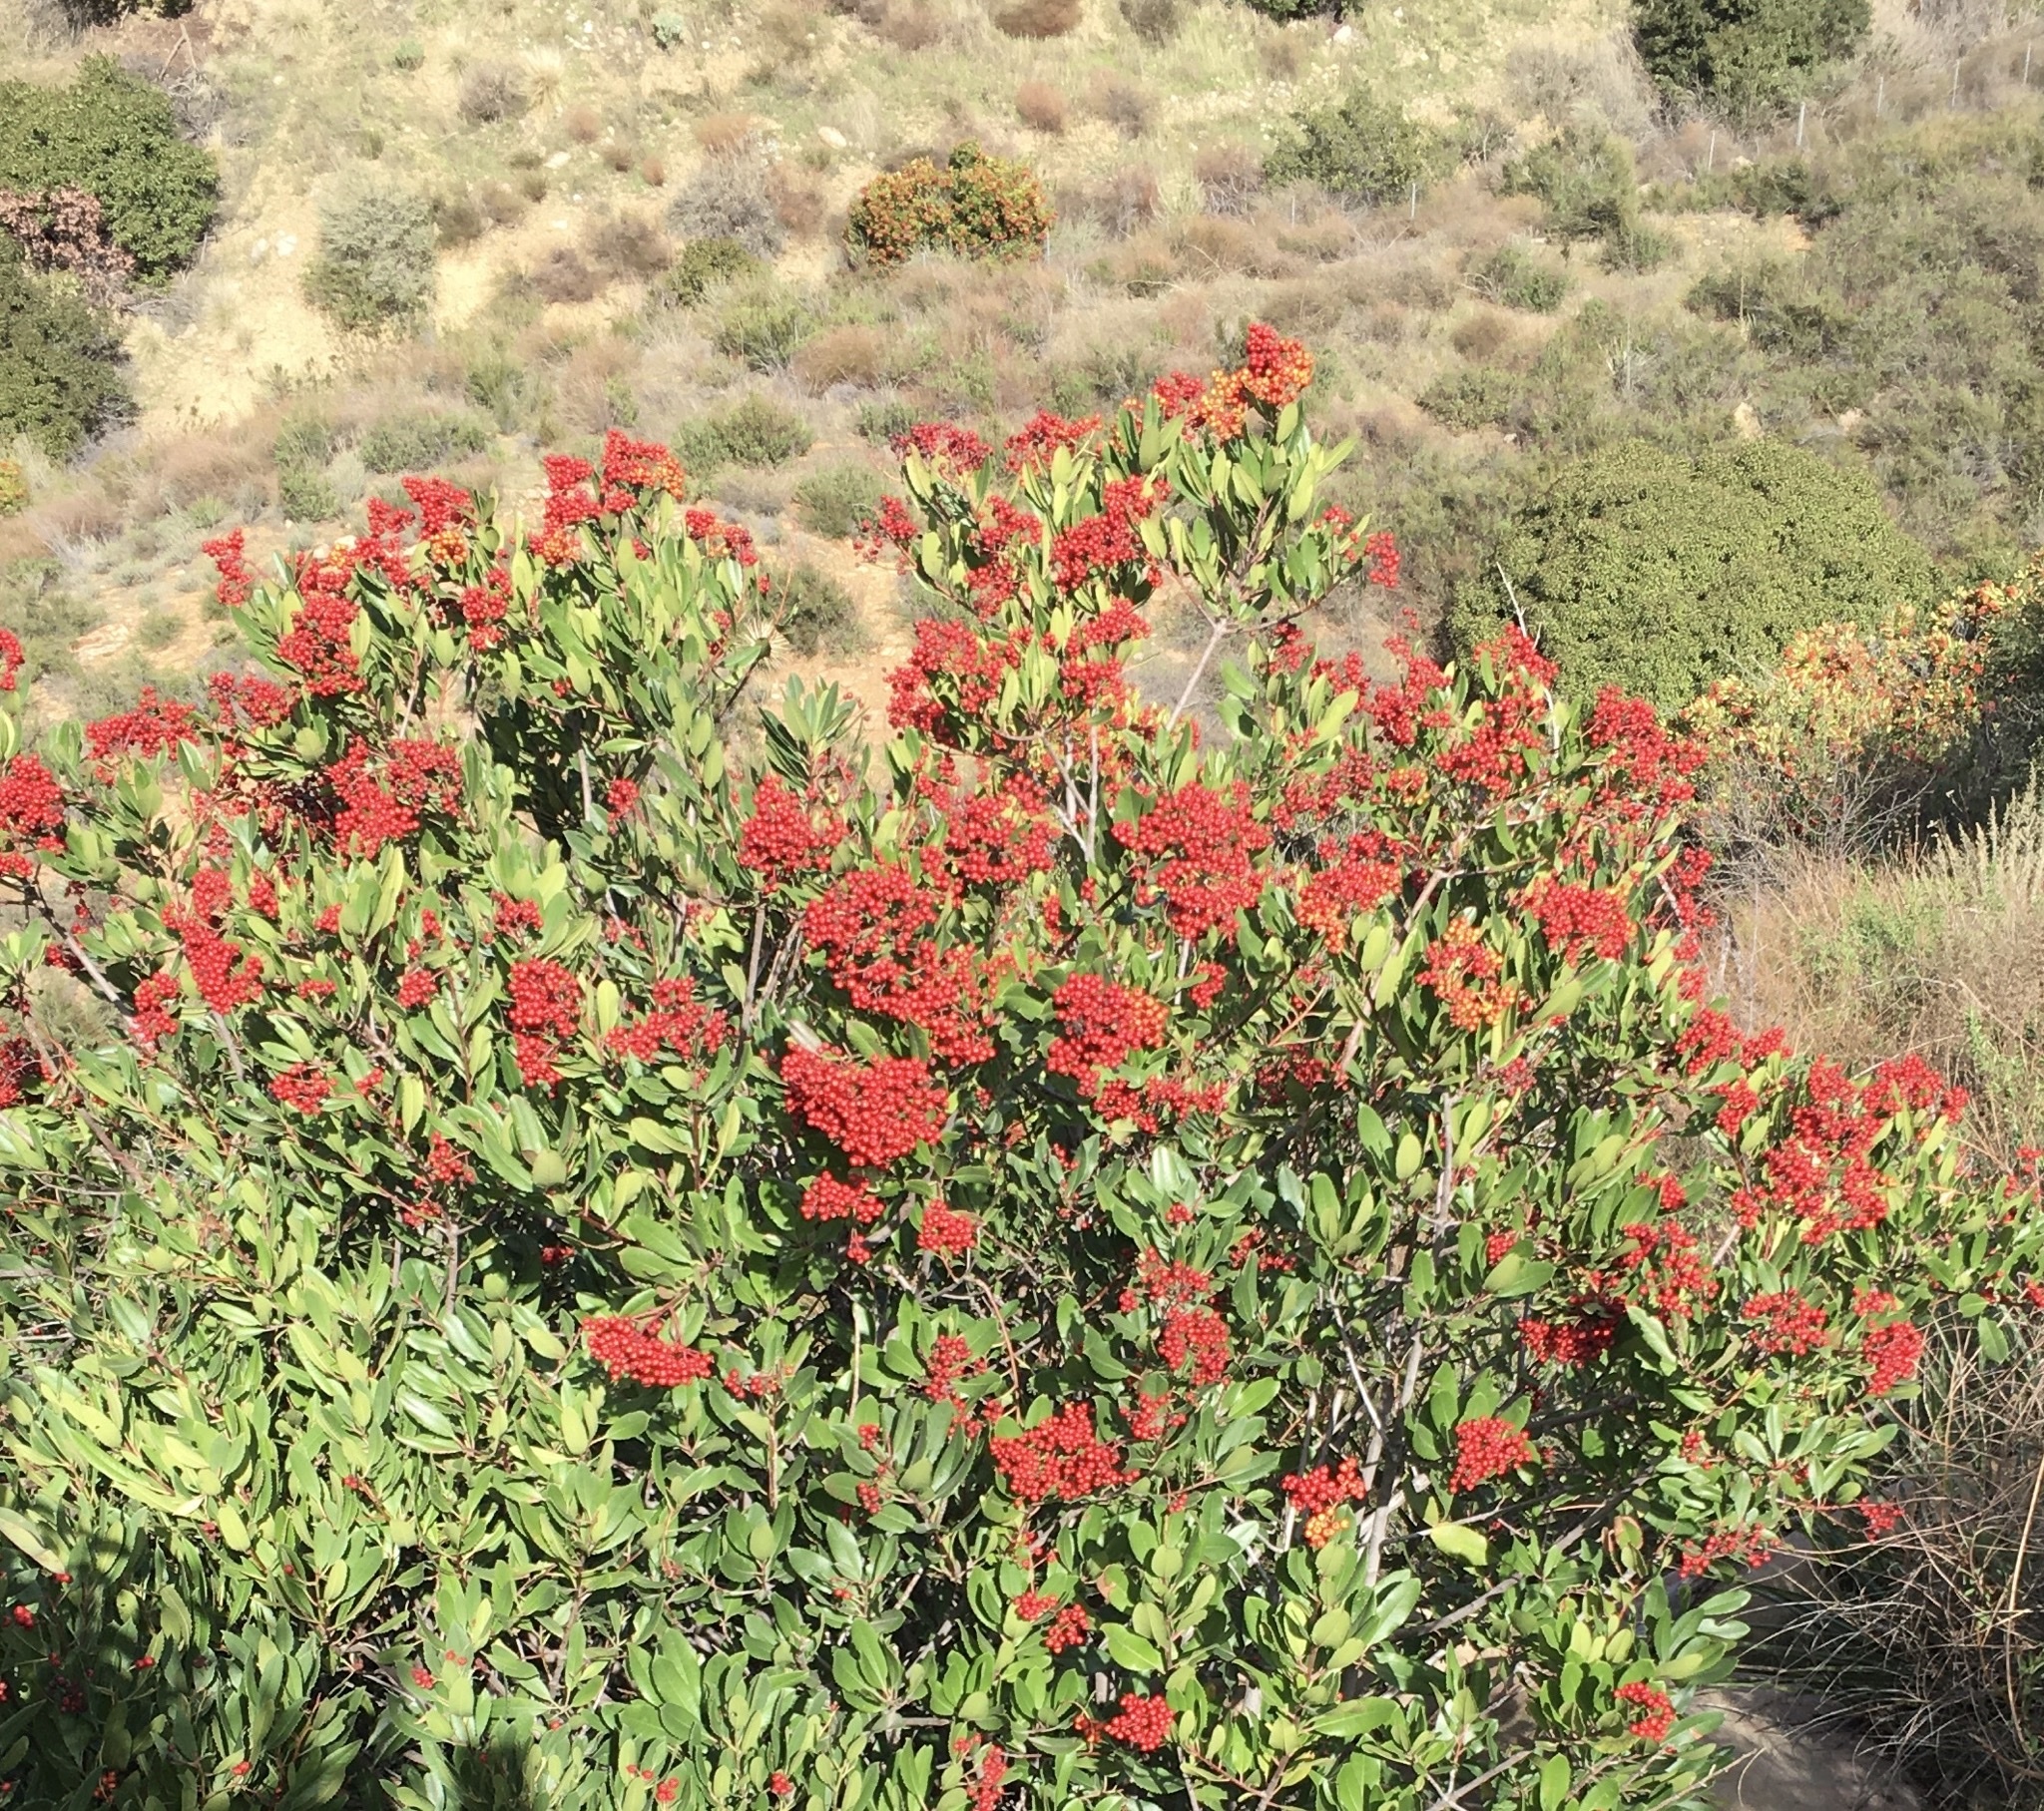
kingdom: Plantae
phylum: Tracheophyta
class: Magnoliopsida
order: Rosales
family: Rosaceae
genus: Heteromeles
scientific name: Heteromeles arbutifolia
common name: California-holly
